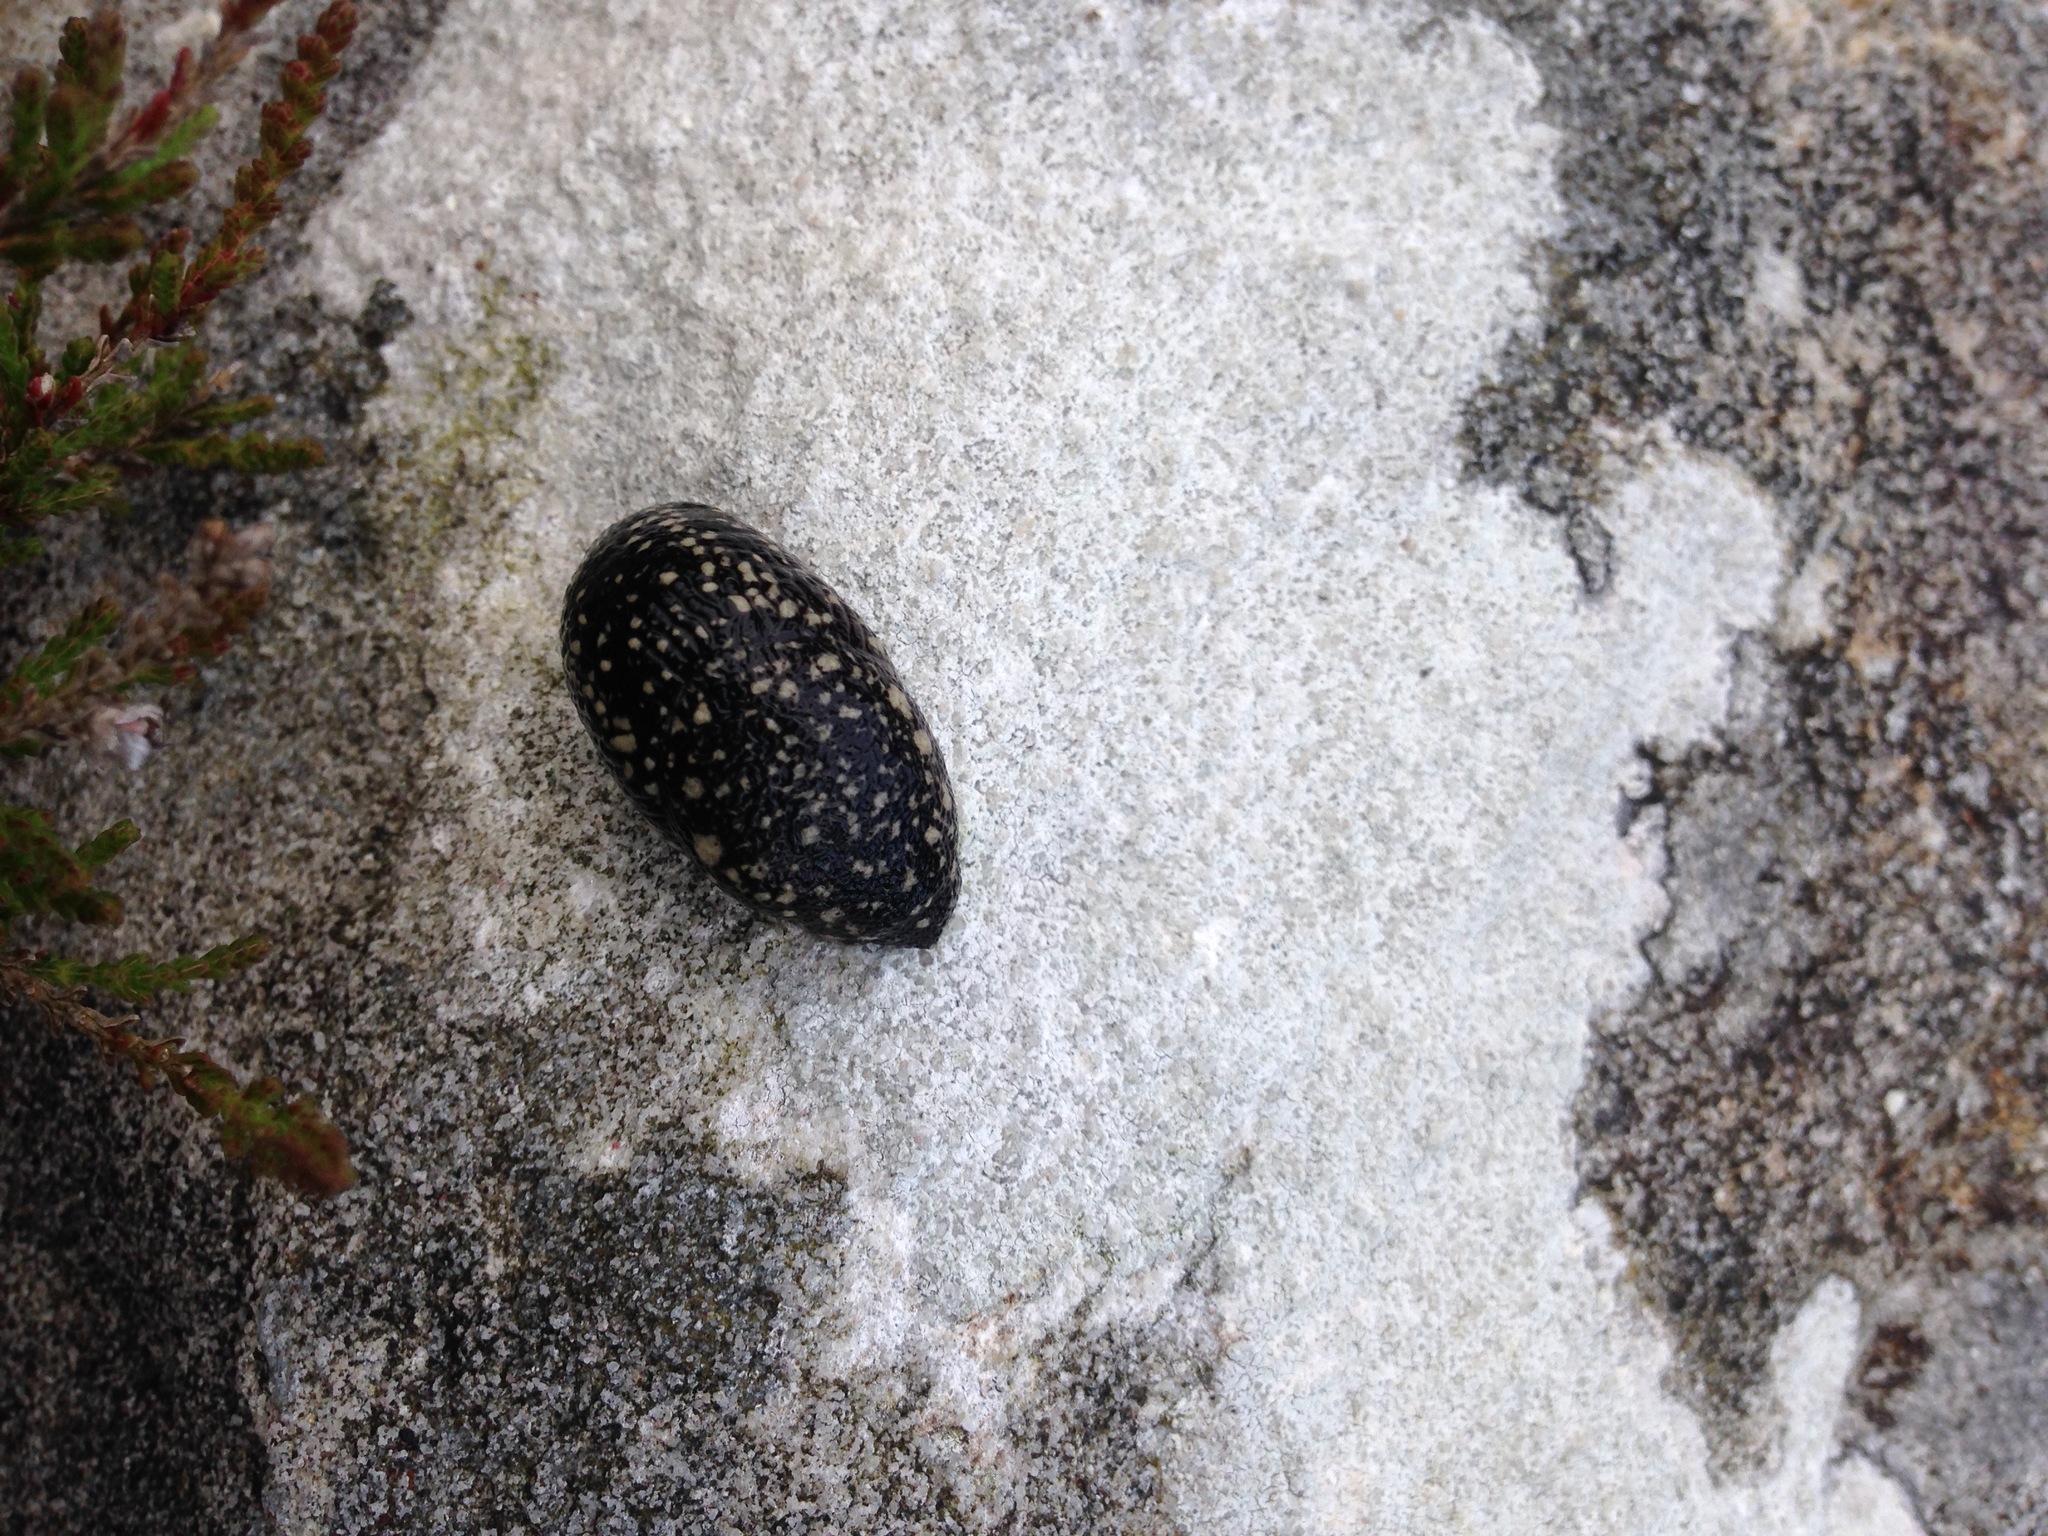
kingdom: Animalia
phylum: Mollusca
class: Gastropoda
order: Stylommatophora
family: Arionidae
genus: Geomalacus
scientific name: Geomalacus maculosus
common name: Kerry slug
